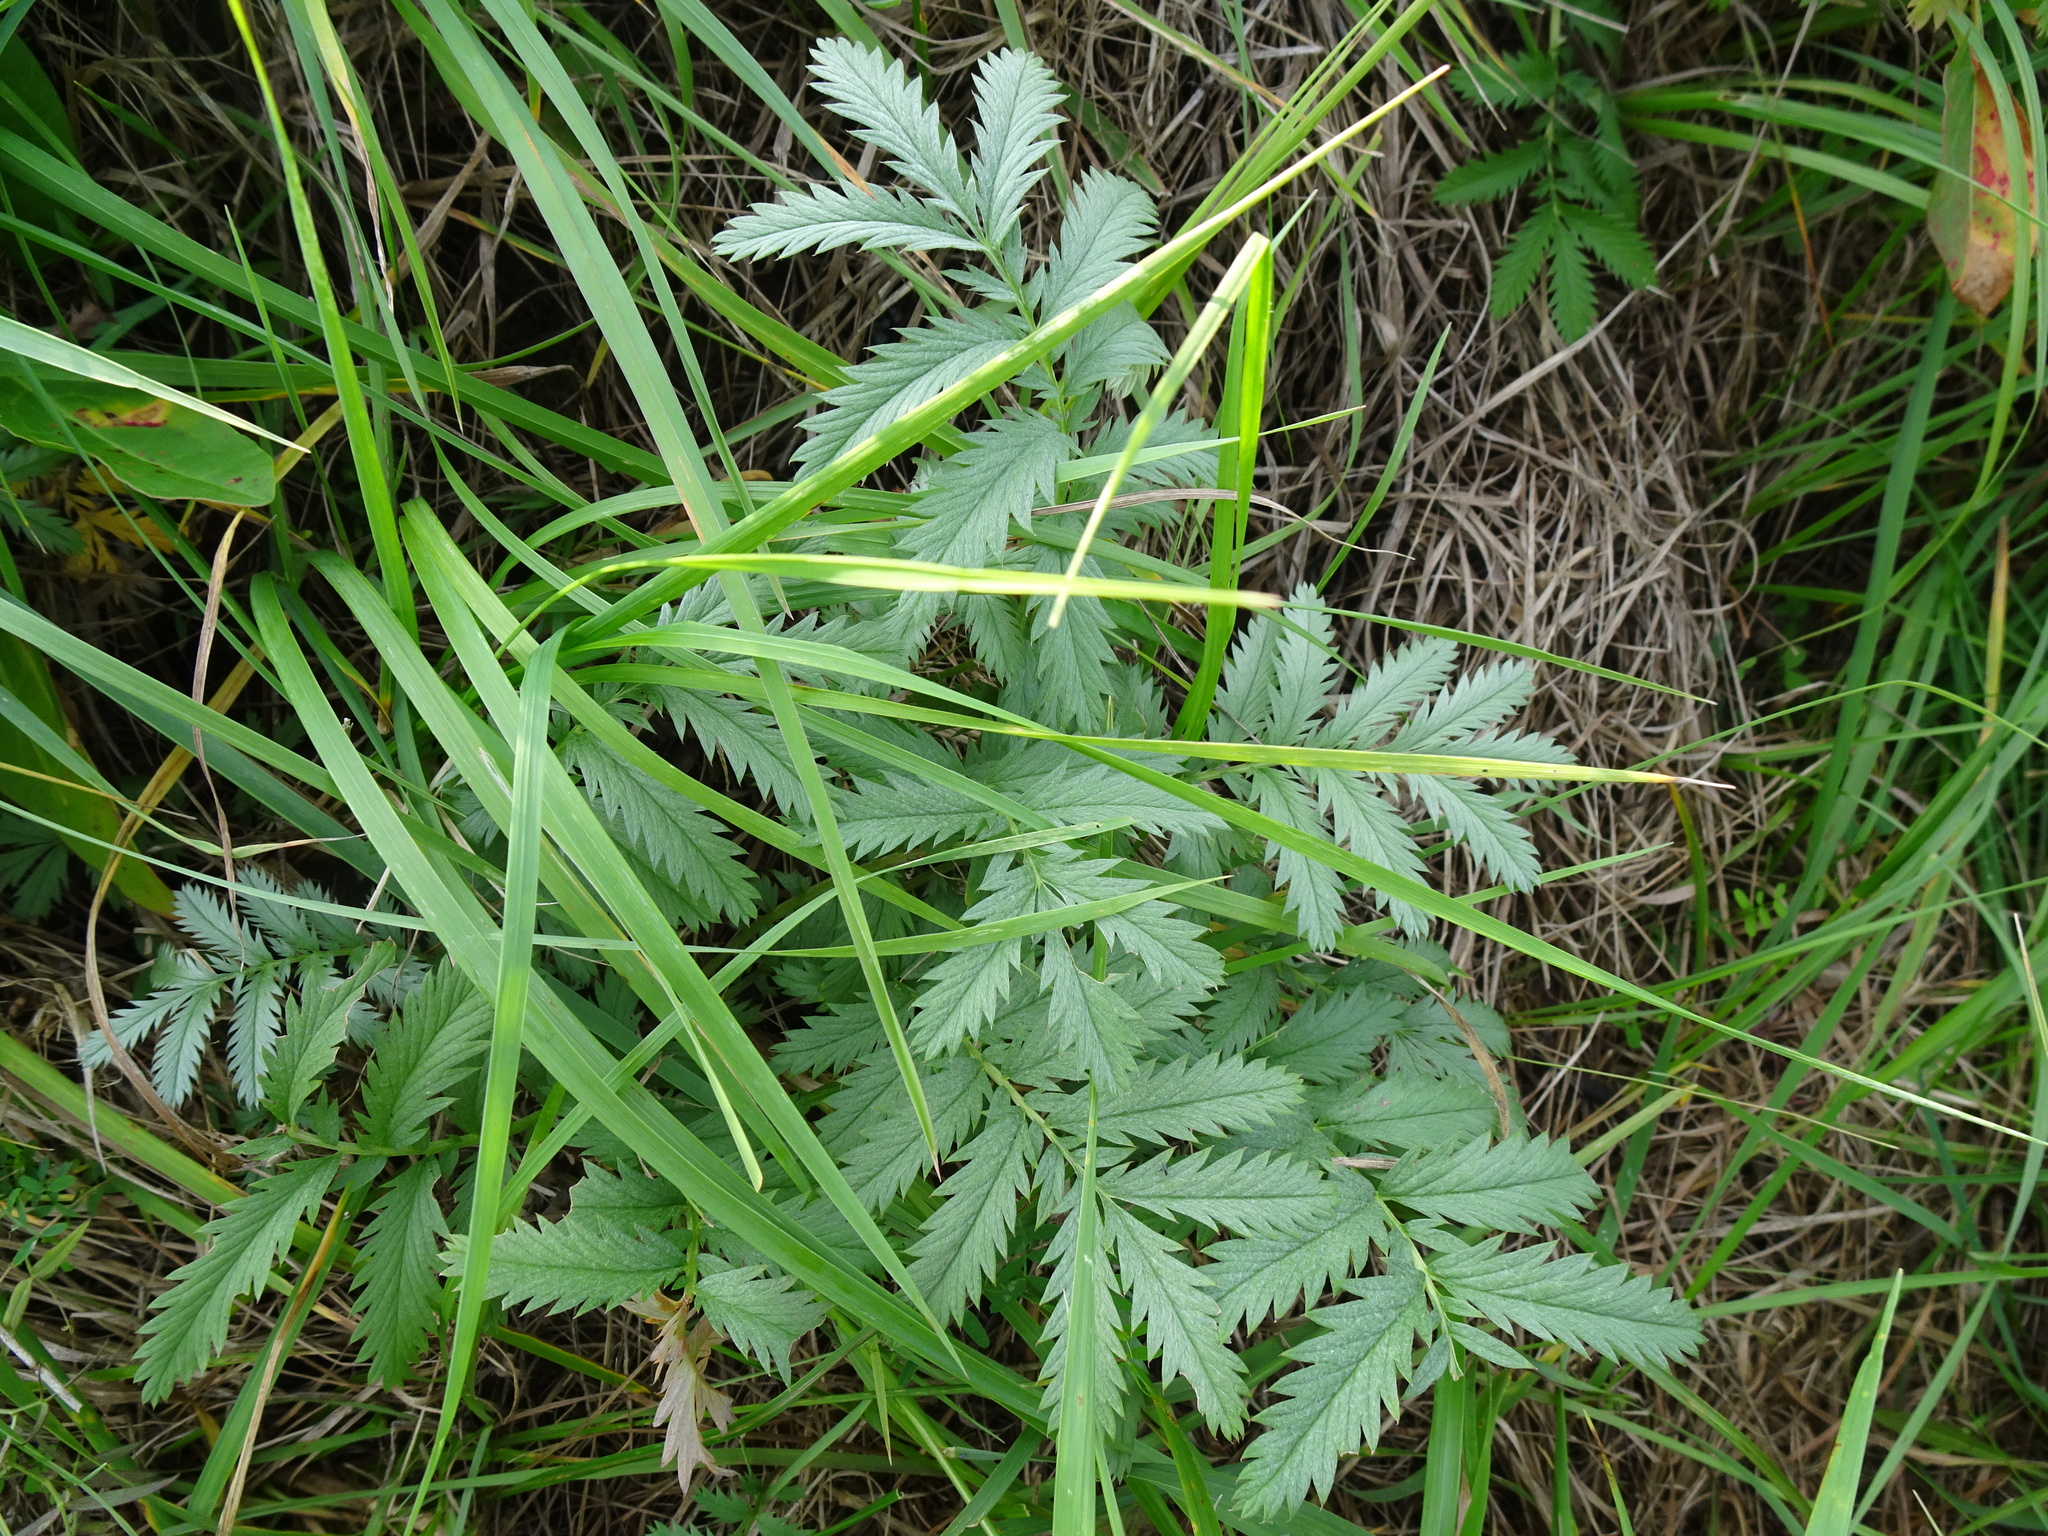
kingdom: Plantae
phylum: Tracheophyta
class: Magnoliopsida
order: Rosales
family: Rosaceae
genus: Argentina
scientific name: Argentina anserina
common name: Common silverweed
